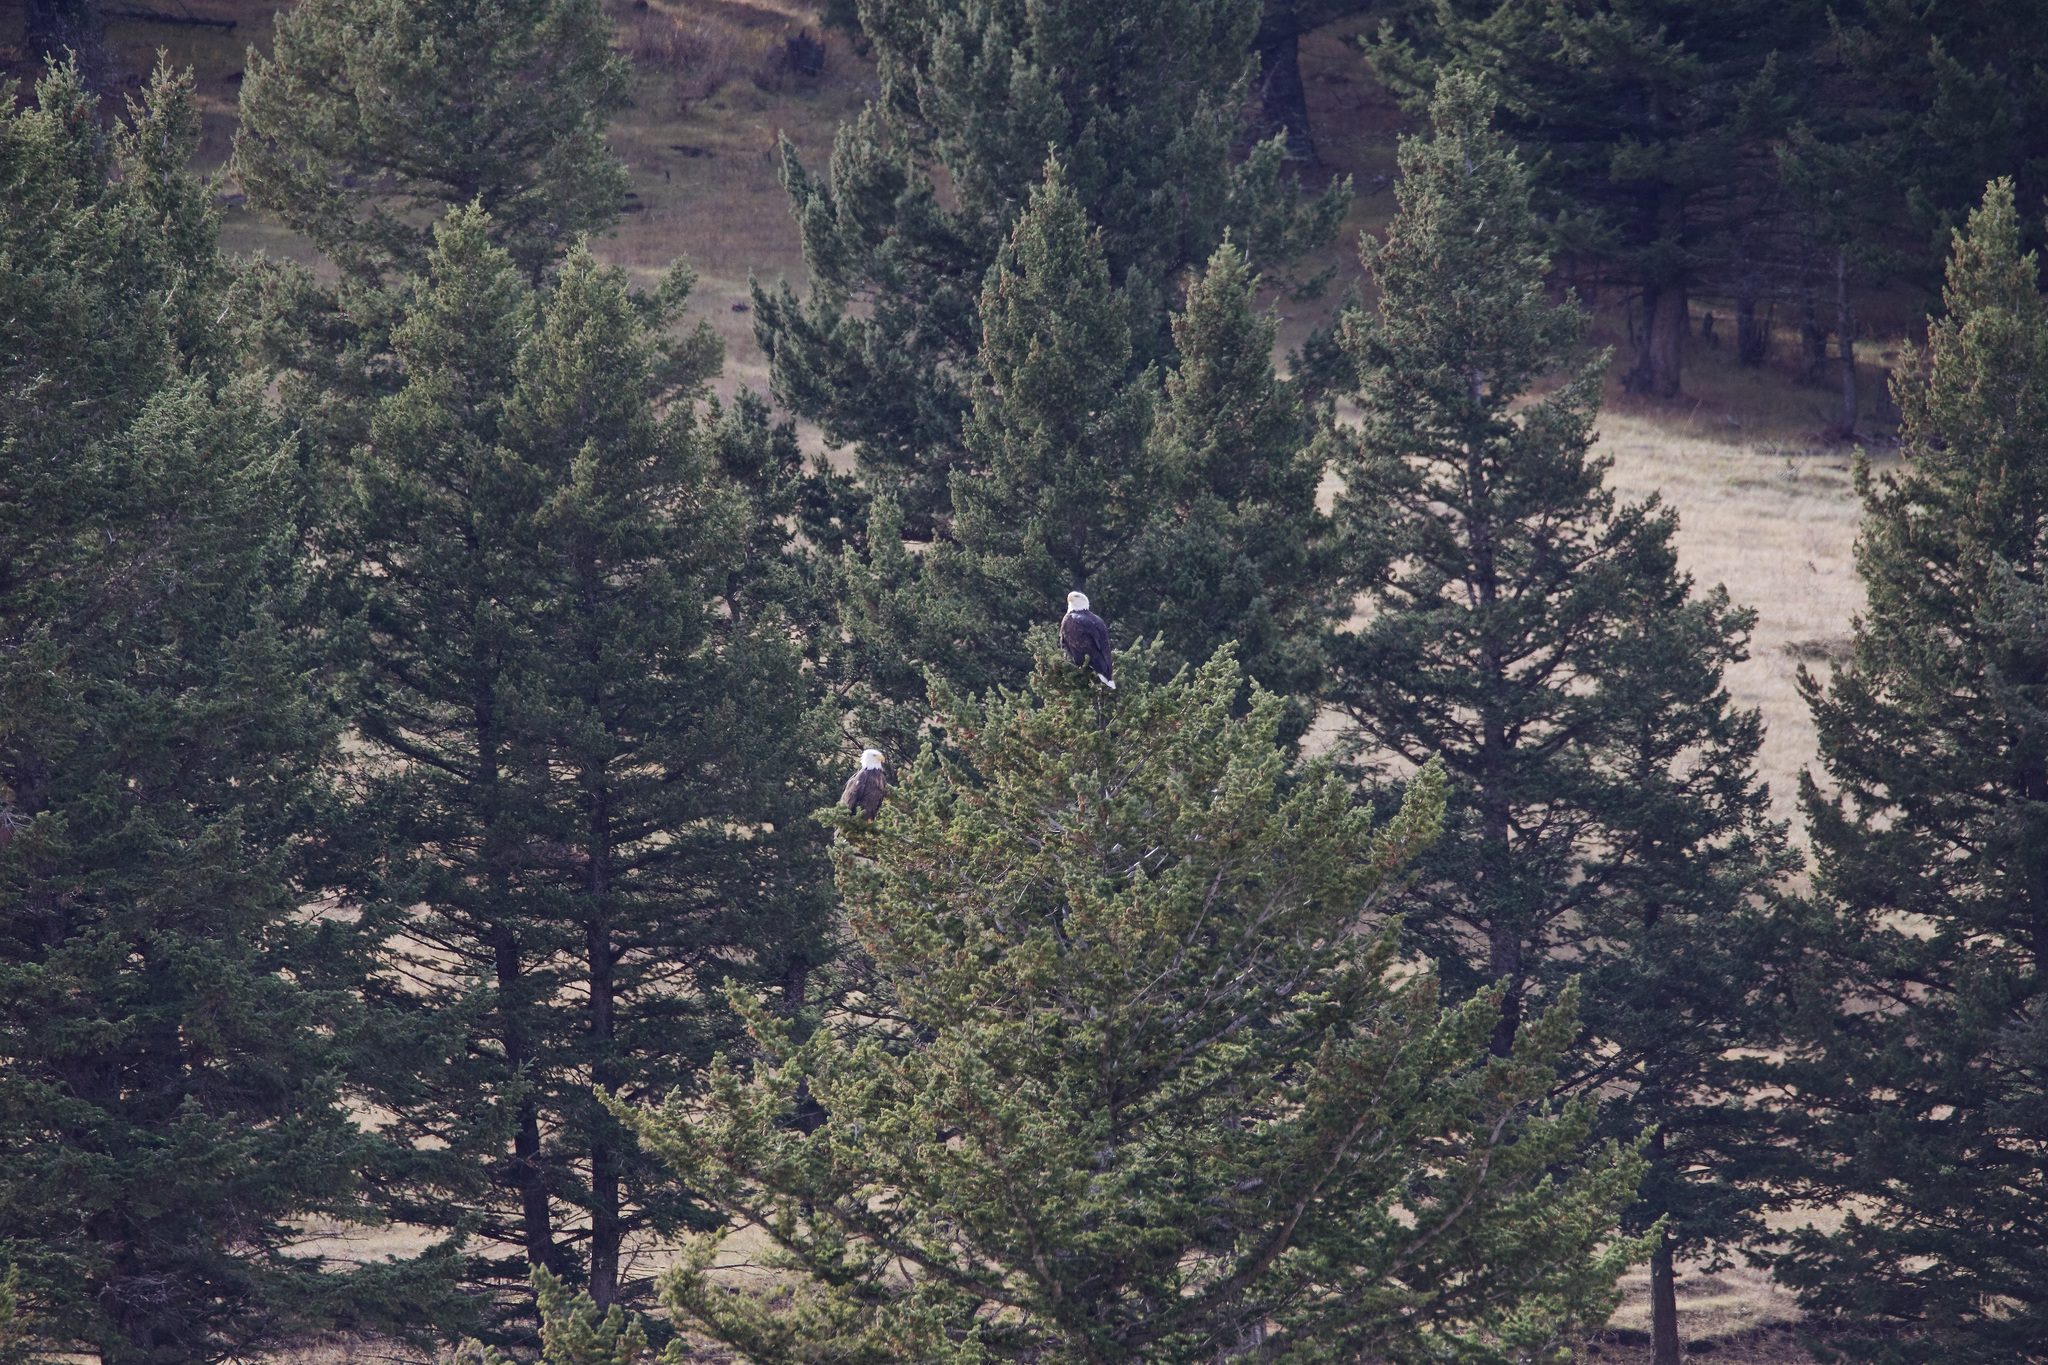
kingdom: Animalia
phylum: Chordata
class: Aves
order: Accipitriformes
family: Accipitridae
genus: Haliaeetus
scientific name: Haliaeetus leucocephalus
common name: Bald eagle
